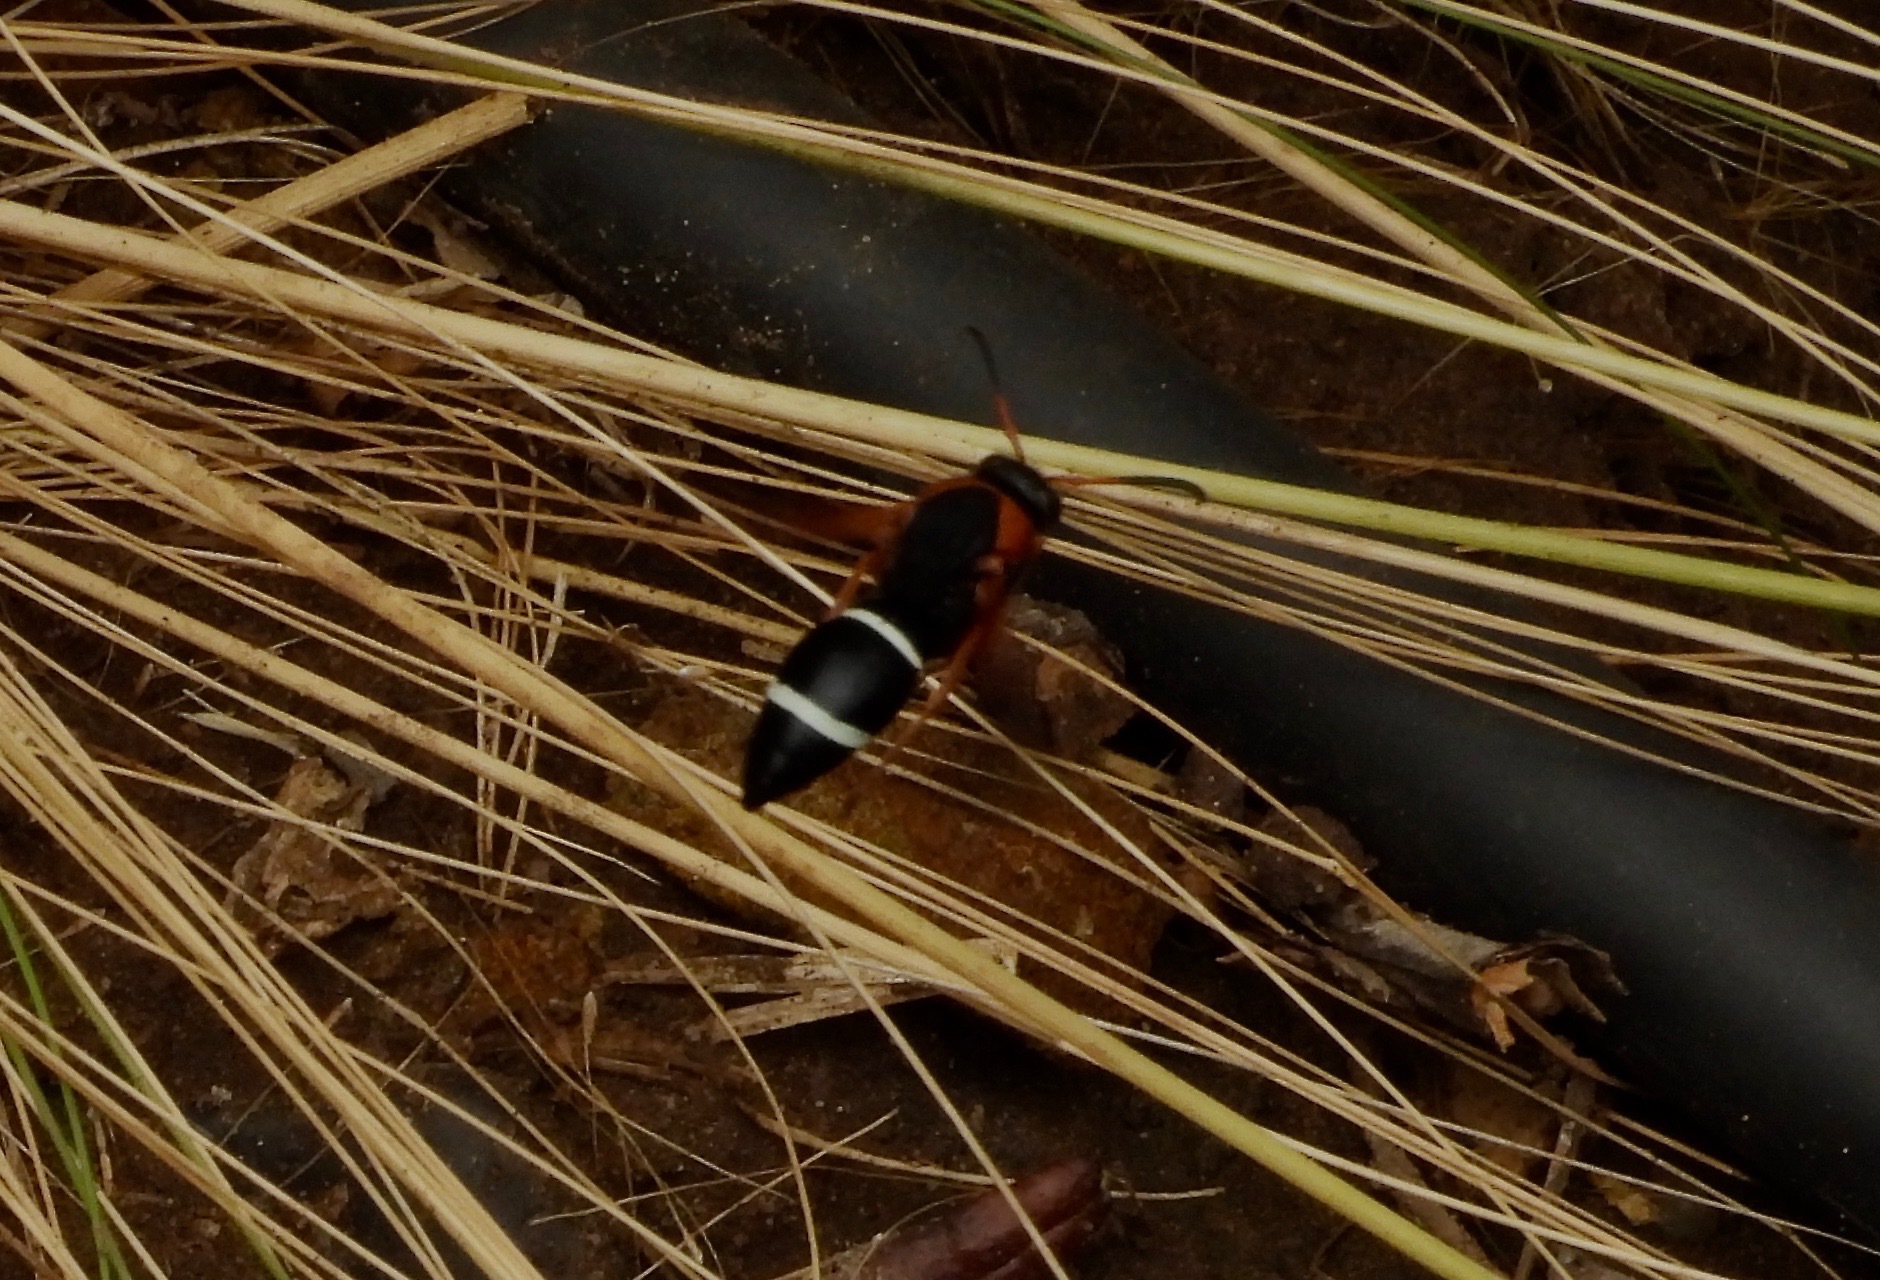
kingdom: Animalia
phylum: Arthropoda
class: Insecta
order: Hymenoptera
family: Vespidae
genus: Hypodynerus
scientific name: Hypodynerus chiliensis
